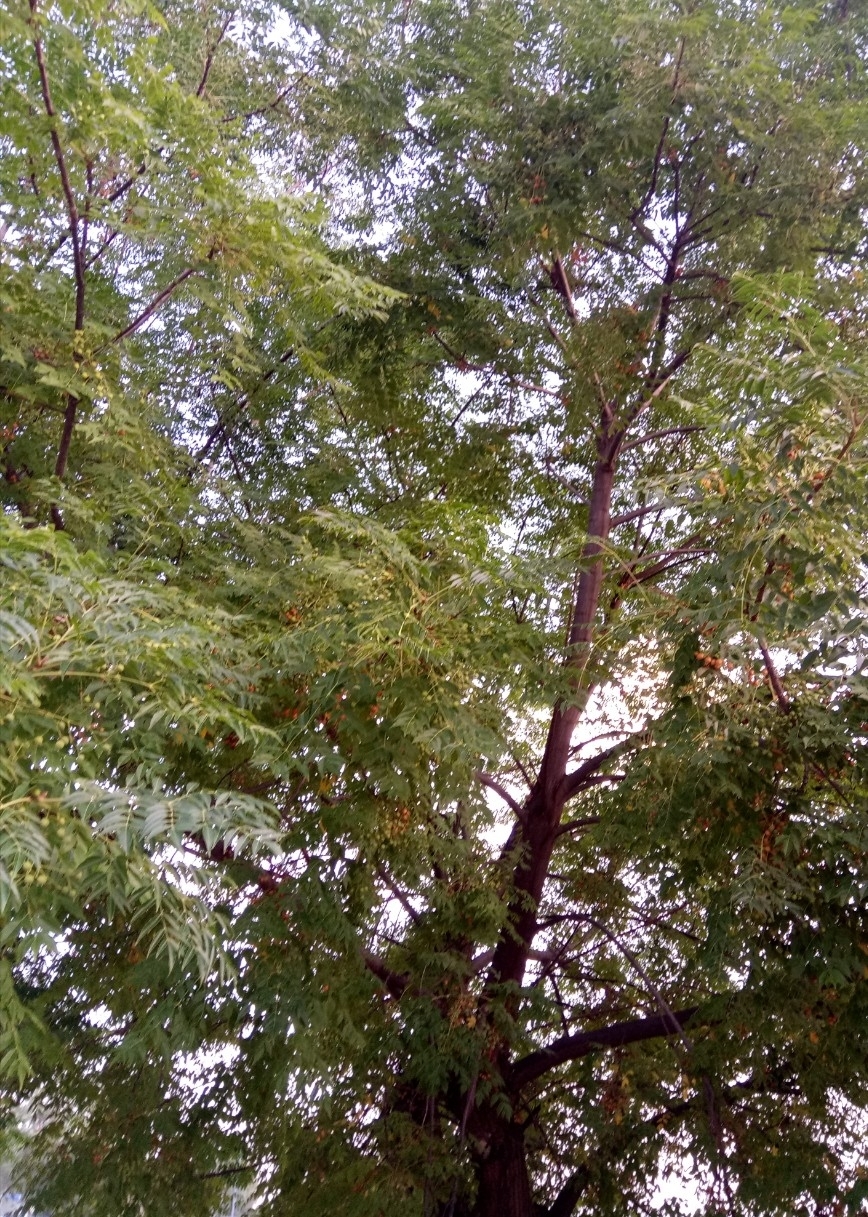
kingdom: Plantae
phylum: Tracheophyta
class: Magnoliopsida
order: Sapindales
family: Meliaceae
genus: Melia
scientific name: Melia azedarach
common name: Chinaberrytree
